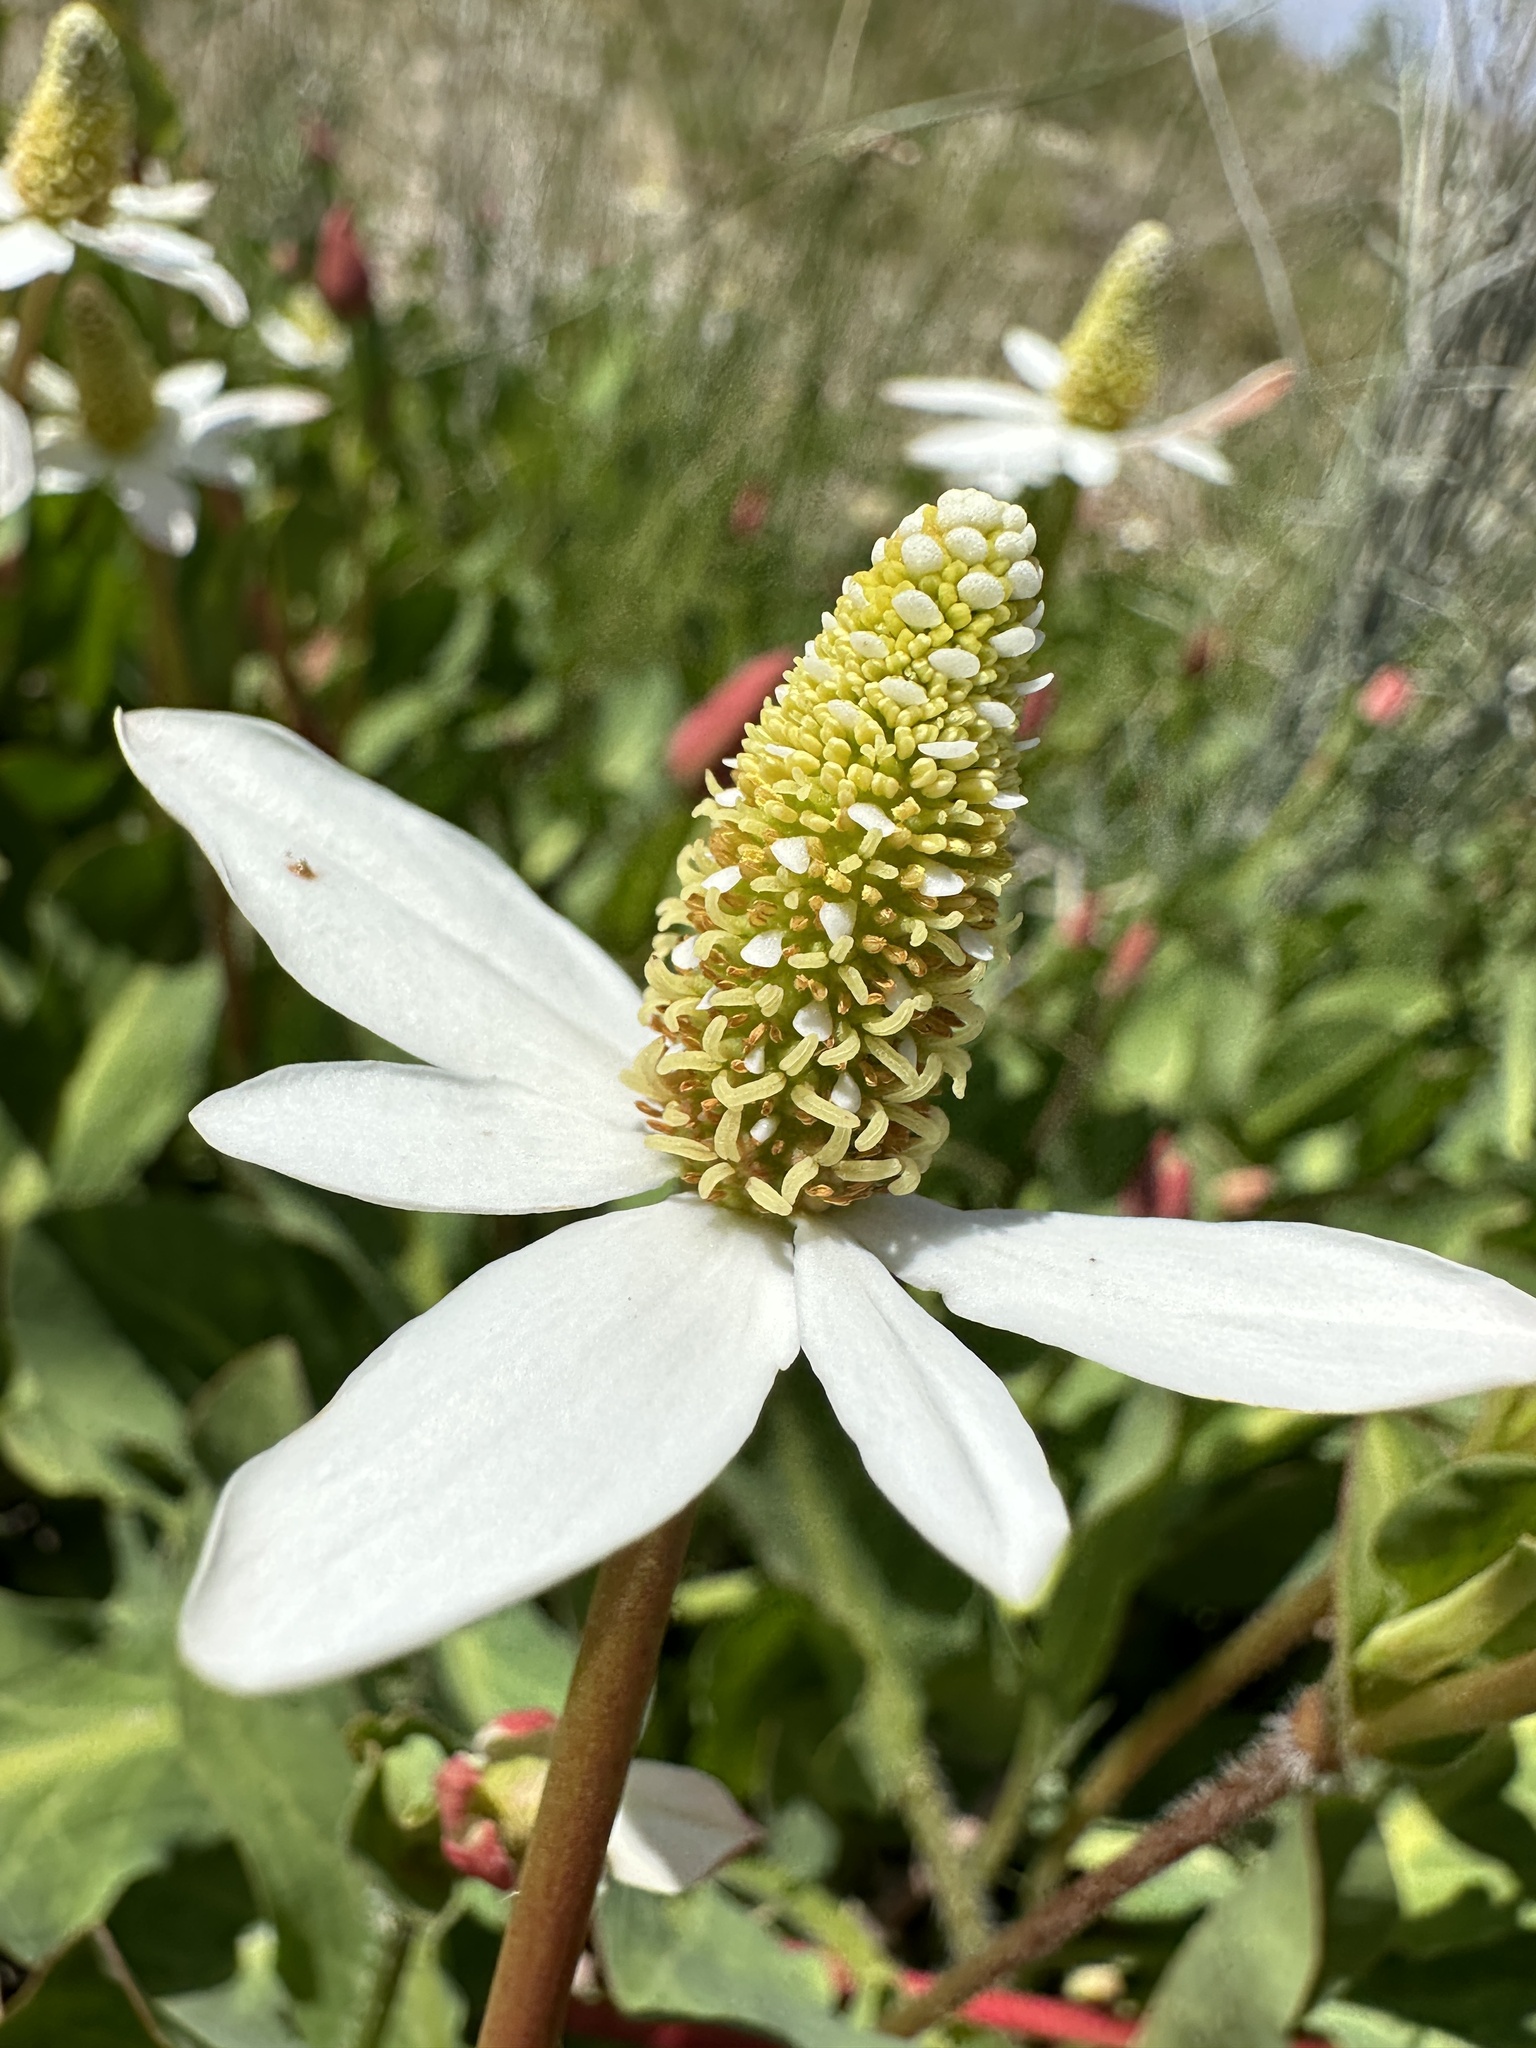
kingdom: Plantae
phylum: Tracheophyta
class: Magnoliopsida
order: Piperales
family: Saururaceae
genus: Anemopsis
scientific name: Anemopsis californica
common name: Apache-beads
